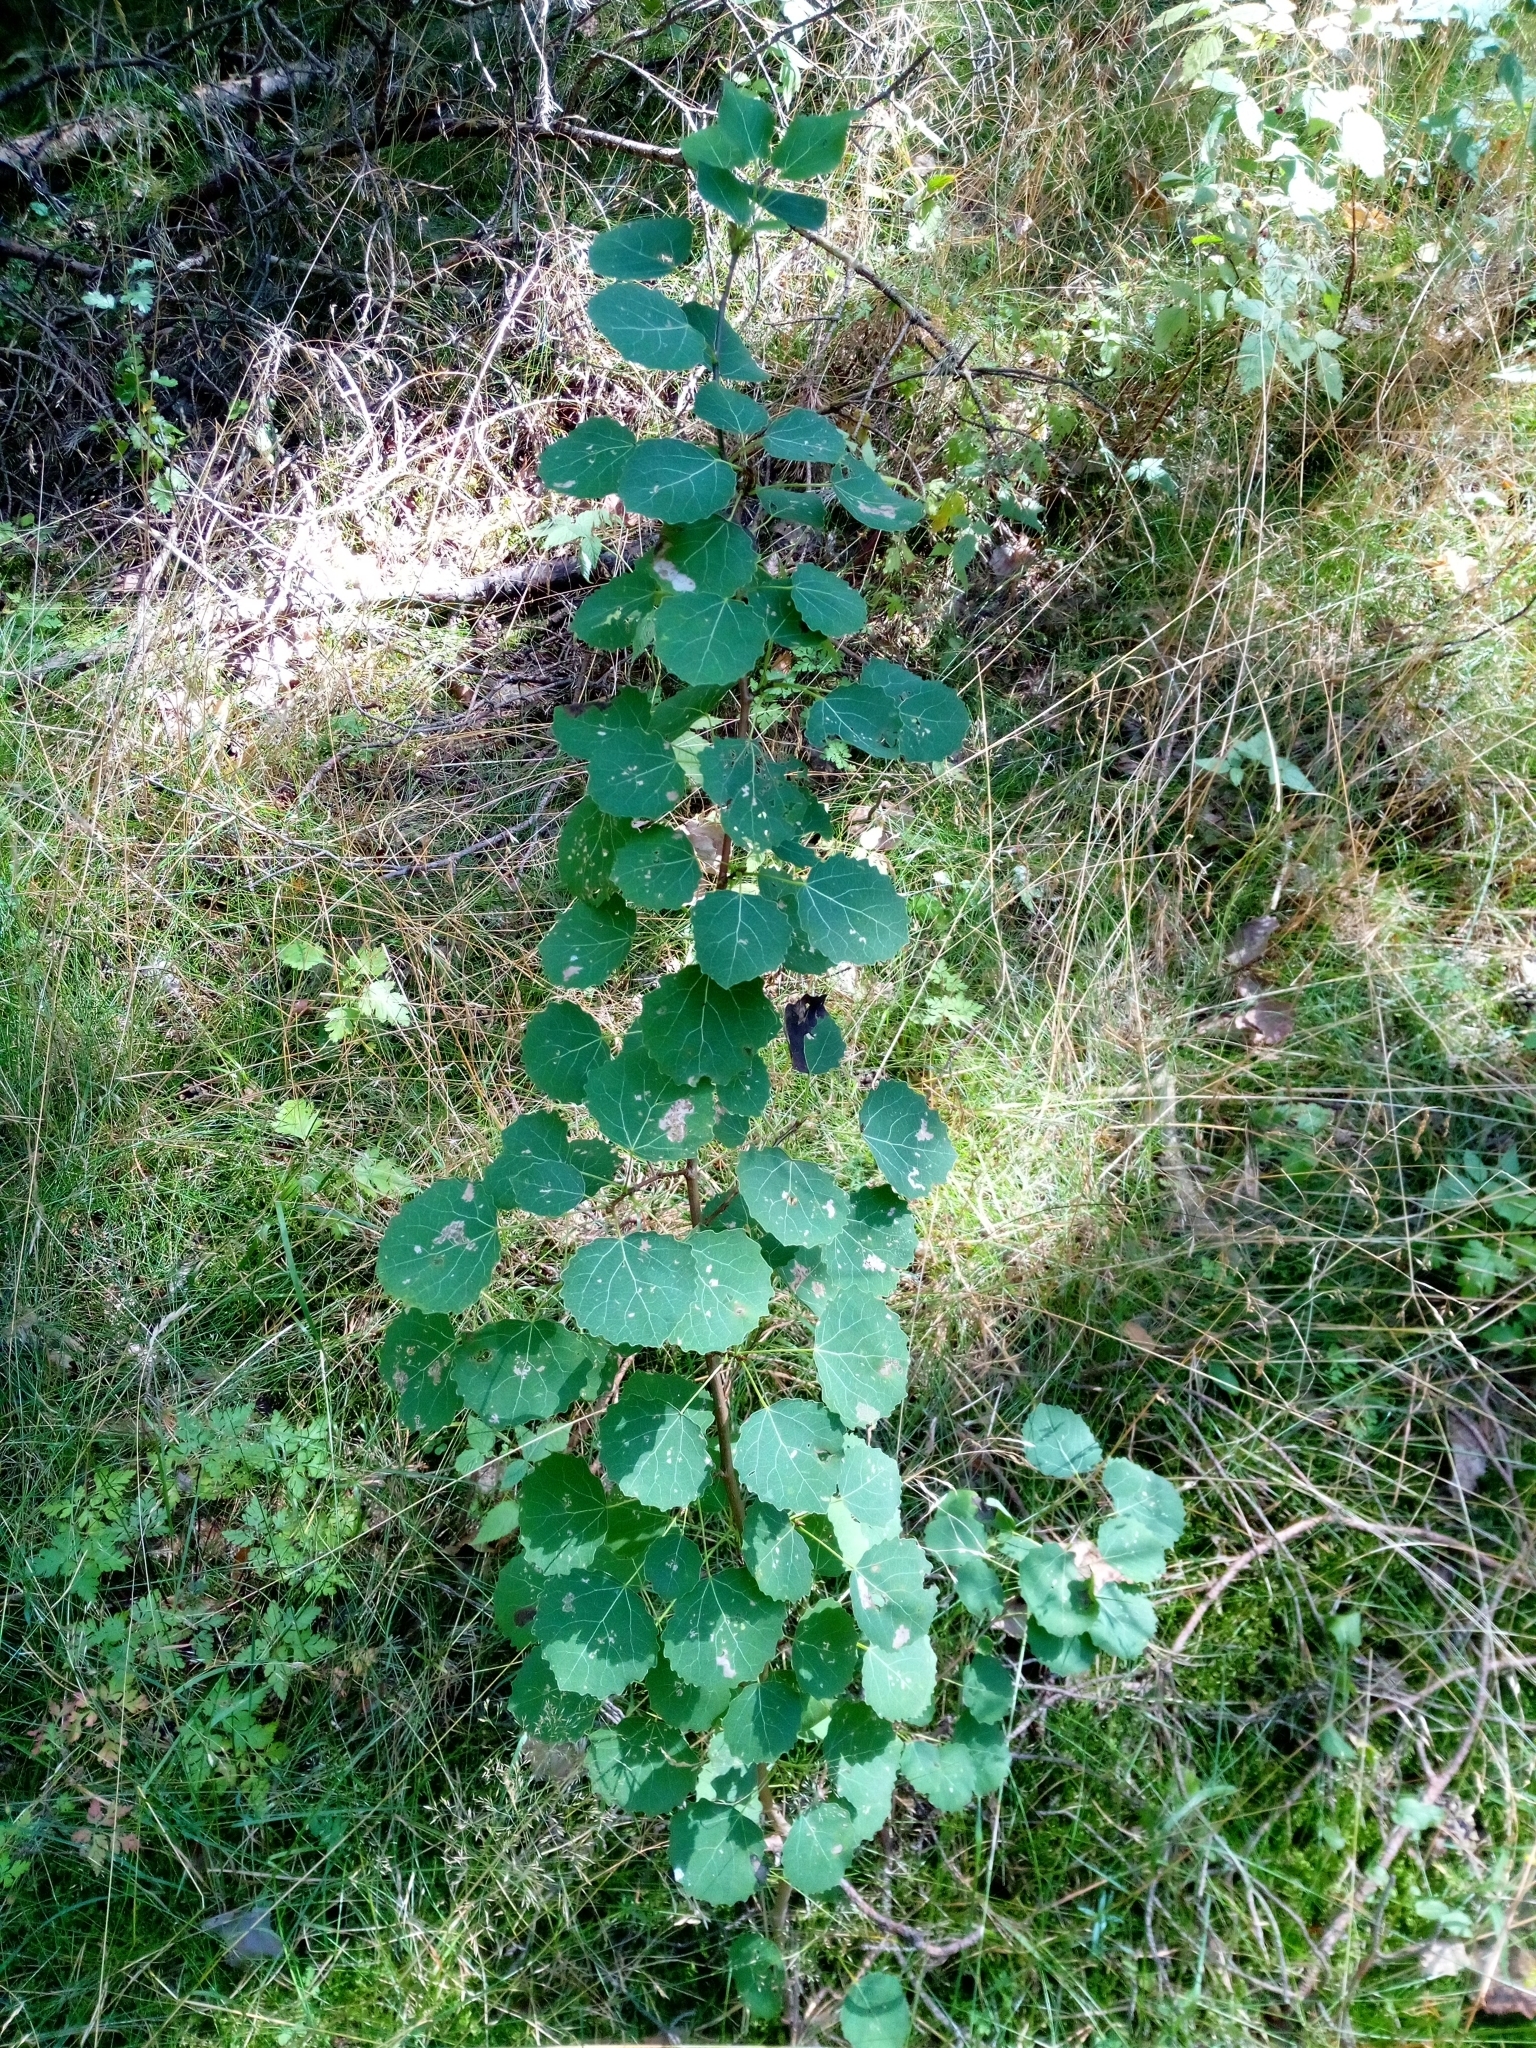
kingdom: Plantae
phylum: Tracheophyta
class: Magnoliopsida
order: Malpighiales
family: Salicaceae
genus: Populus
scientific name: Populus tremula
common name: European aspen
